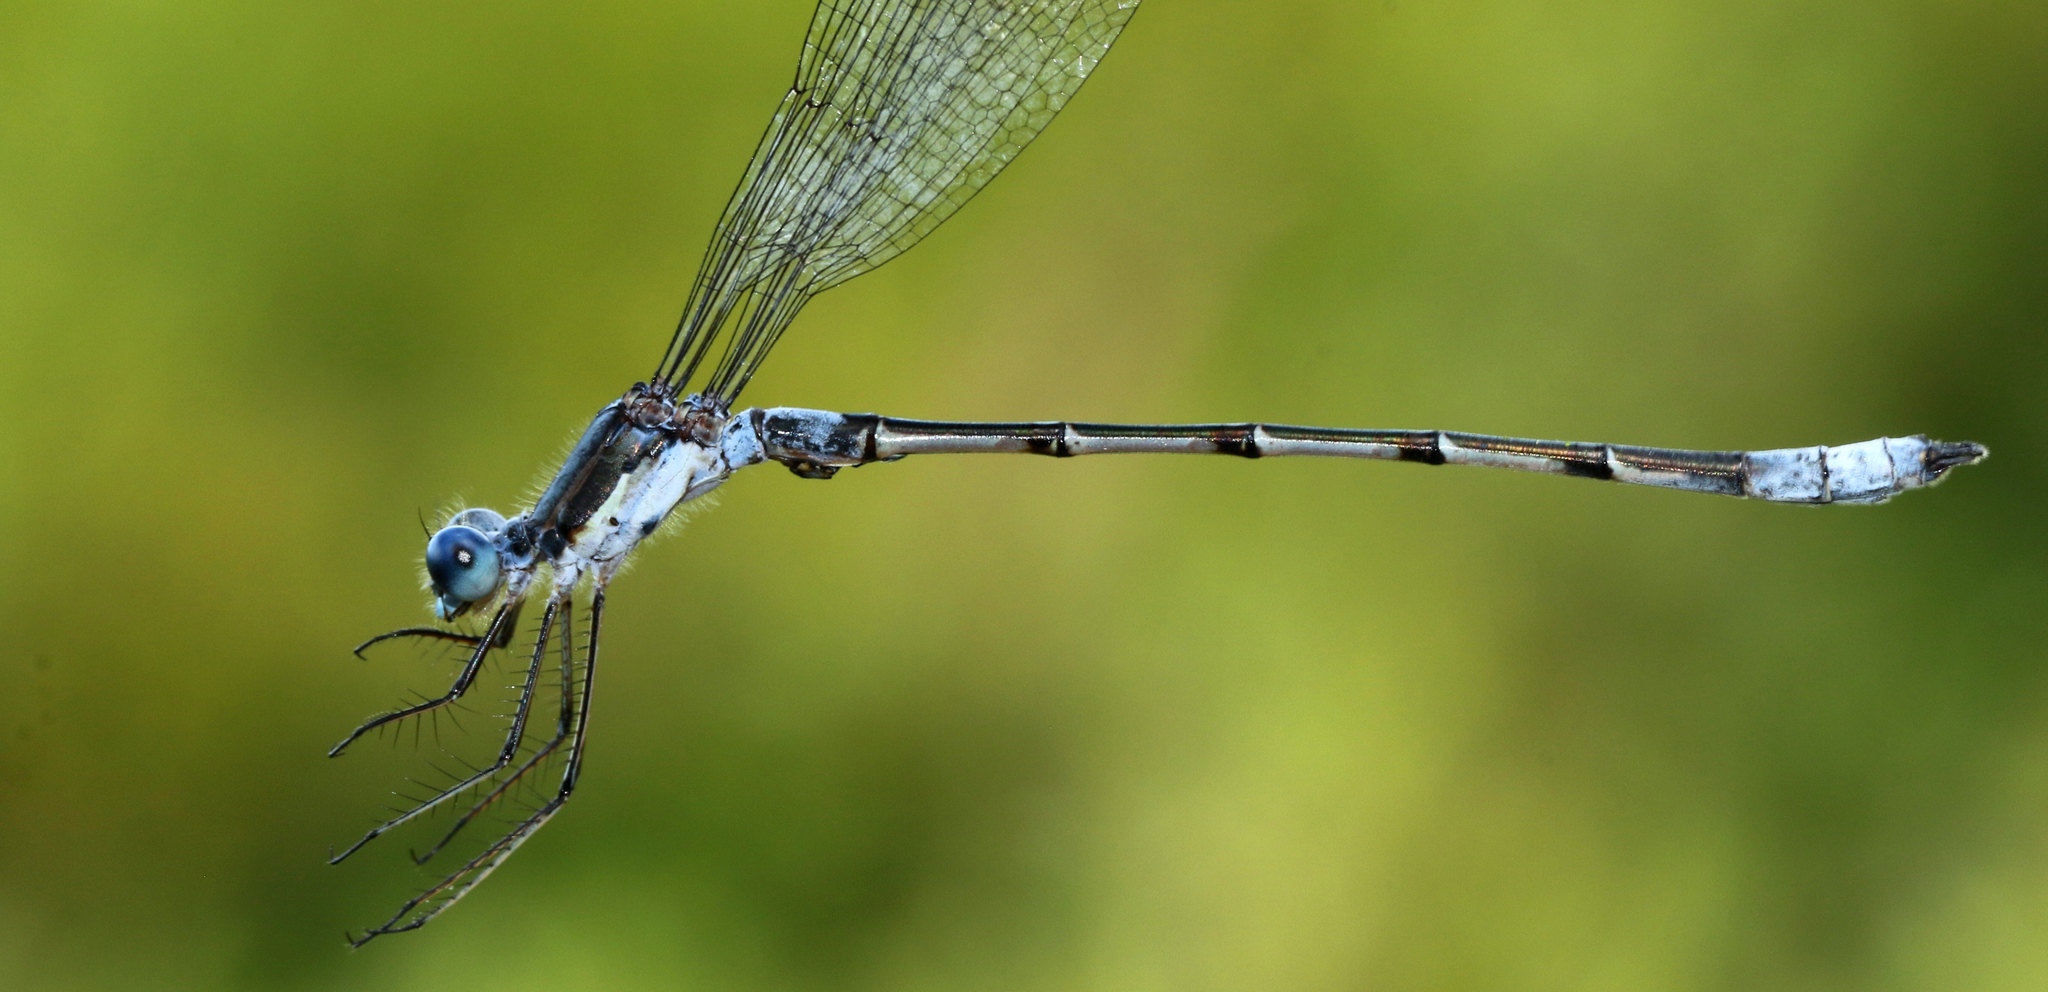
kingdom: Animalia
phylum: Arthropoda
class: Insecta
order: Odonata
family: Lestidae
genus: Lestes
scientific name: Lestes forcipatus
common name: Sweetflag spreadwing
